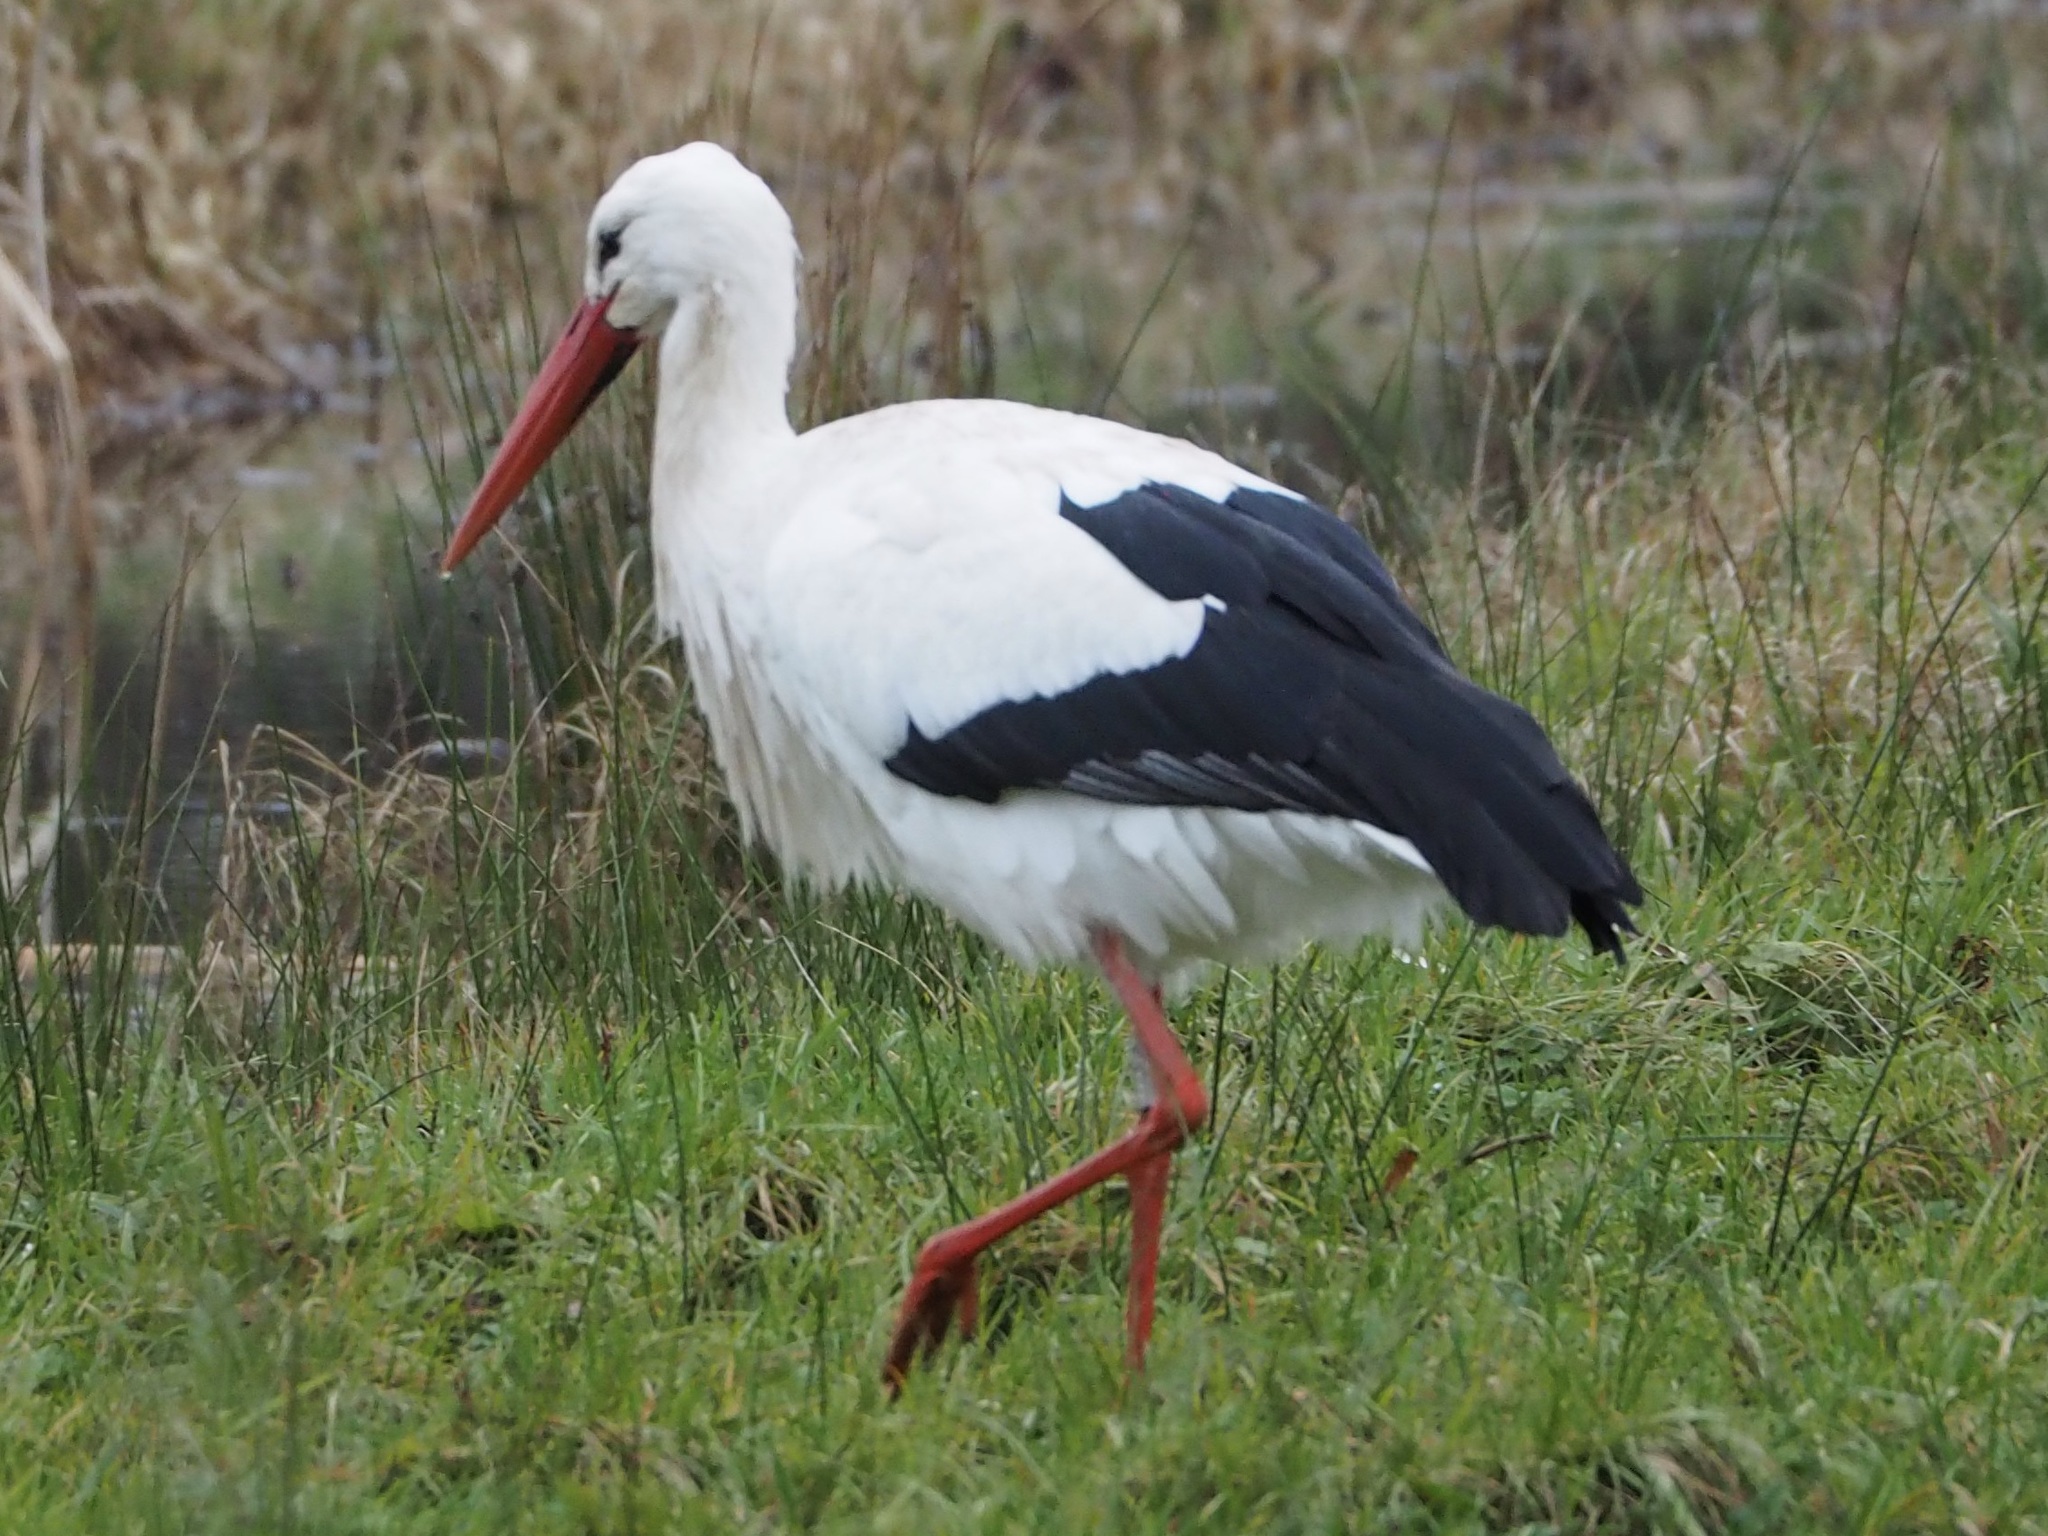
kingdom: Animalia
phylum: Chordata
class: Aves
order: Ciconiiformes
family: Ciconiidae
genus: Ciconia
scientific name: Ciconia ciconia
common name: White stork
